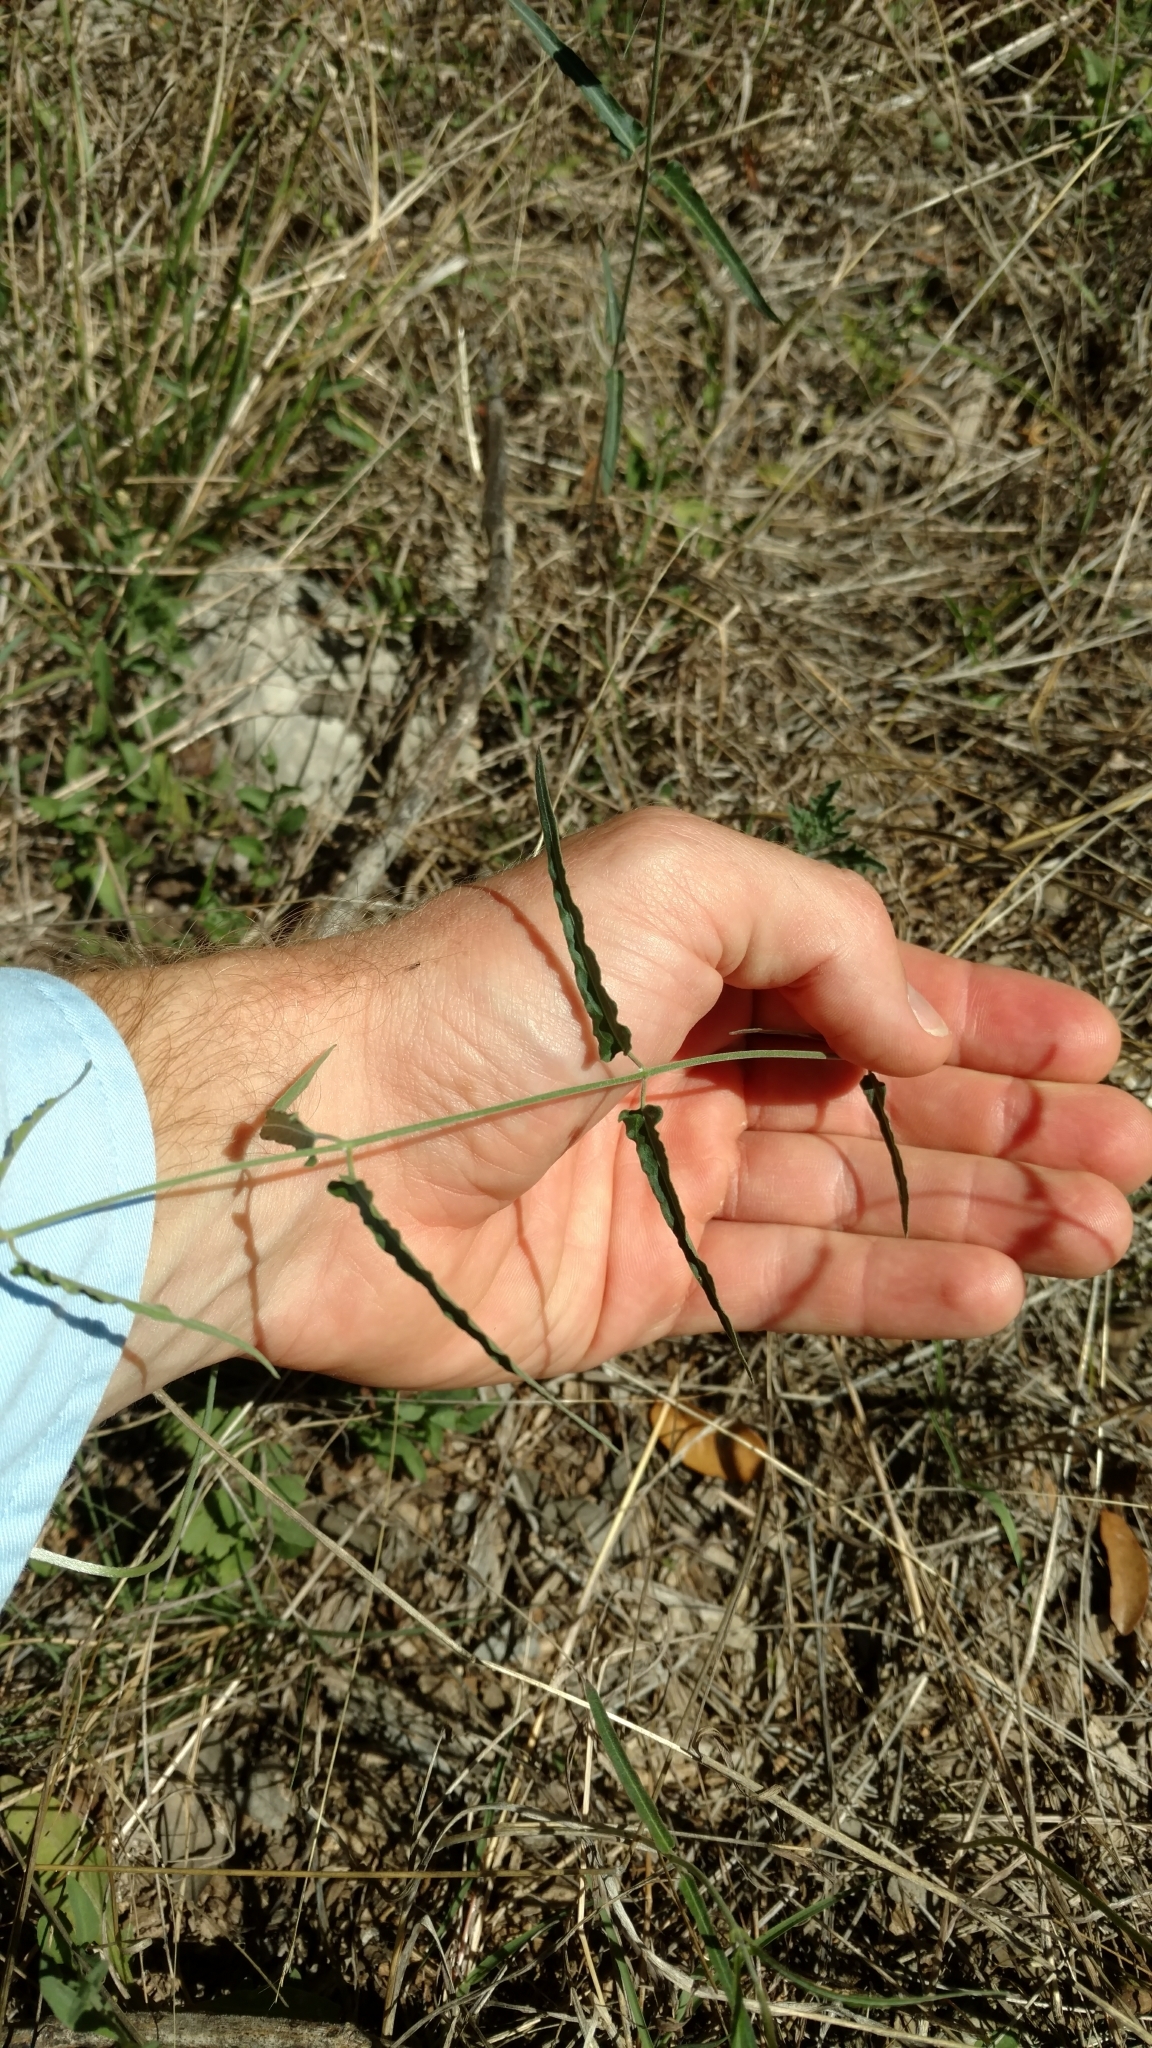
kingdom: Plantae
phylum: Tracheophyta
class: Magnoliopsida
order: Gentianales
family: Apocynaceae
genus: Funastrum
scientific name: Funastrum crispum
